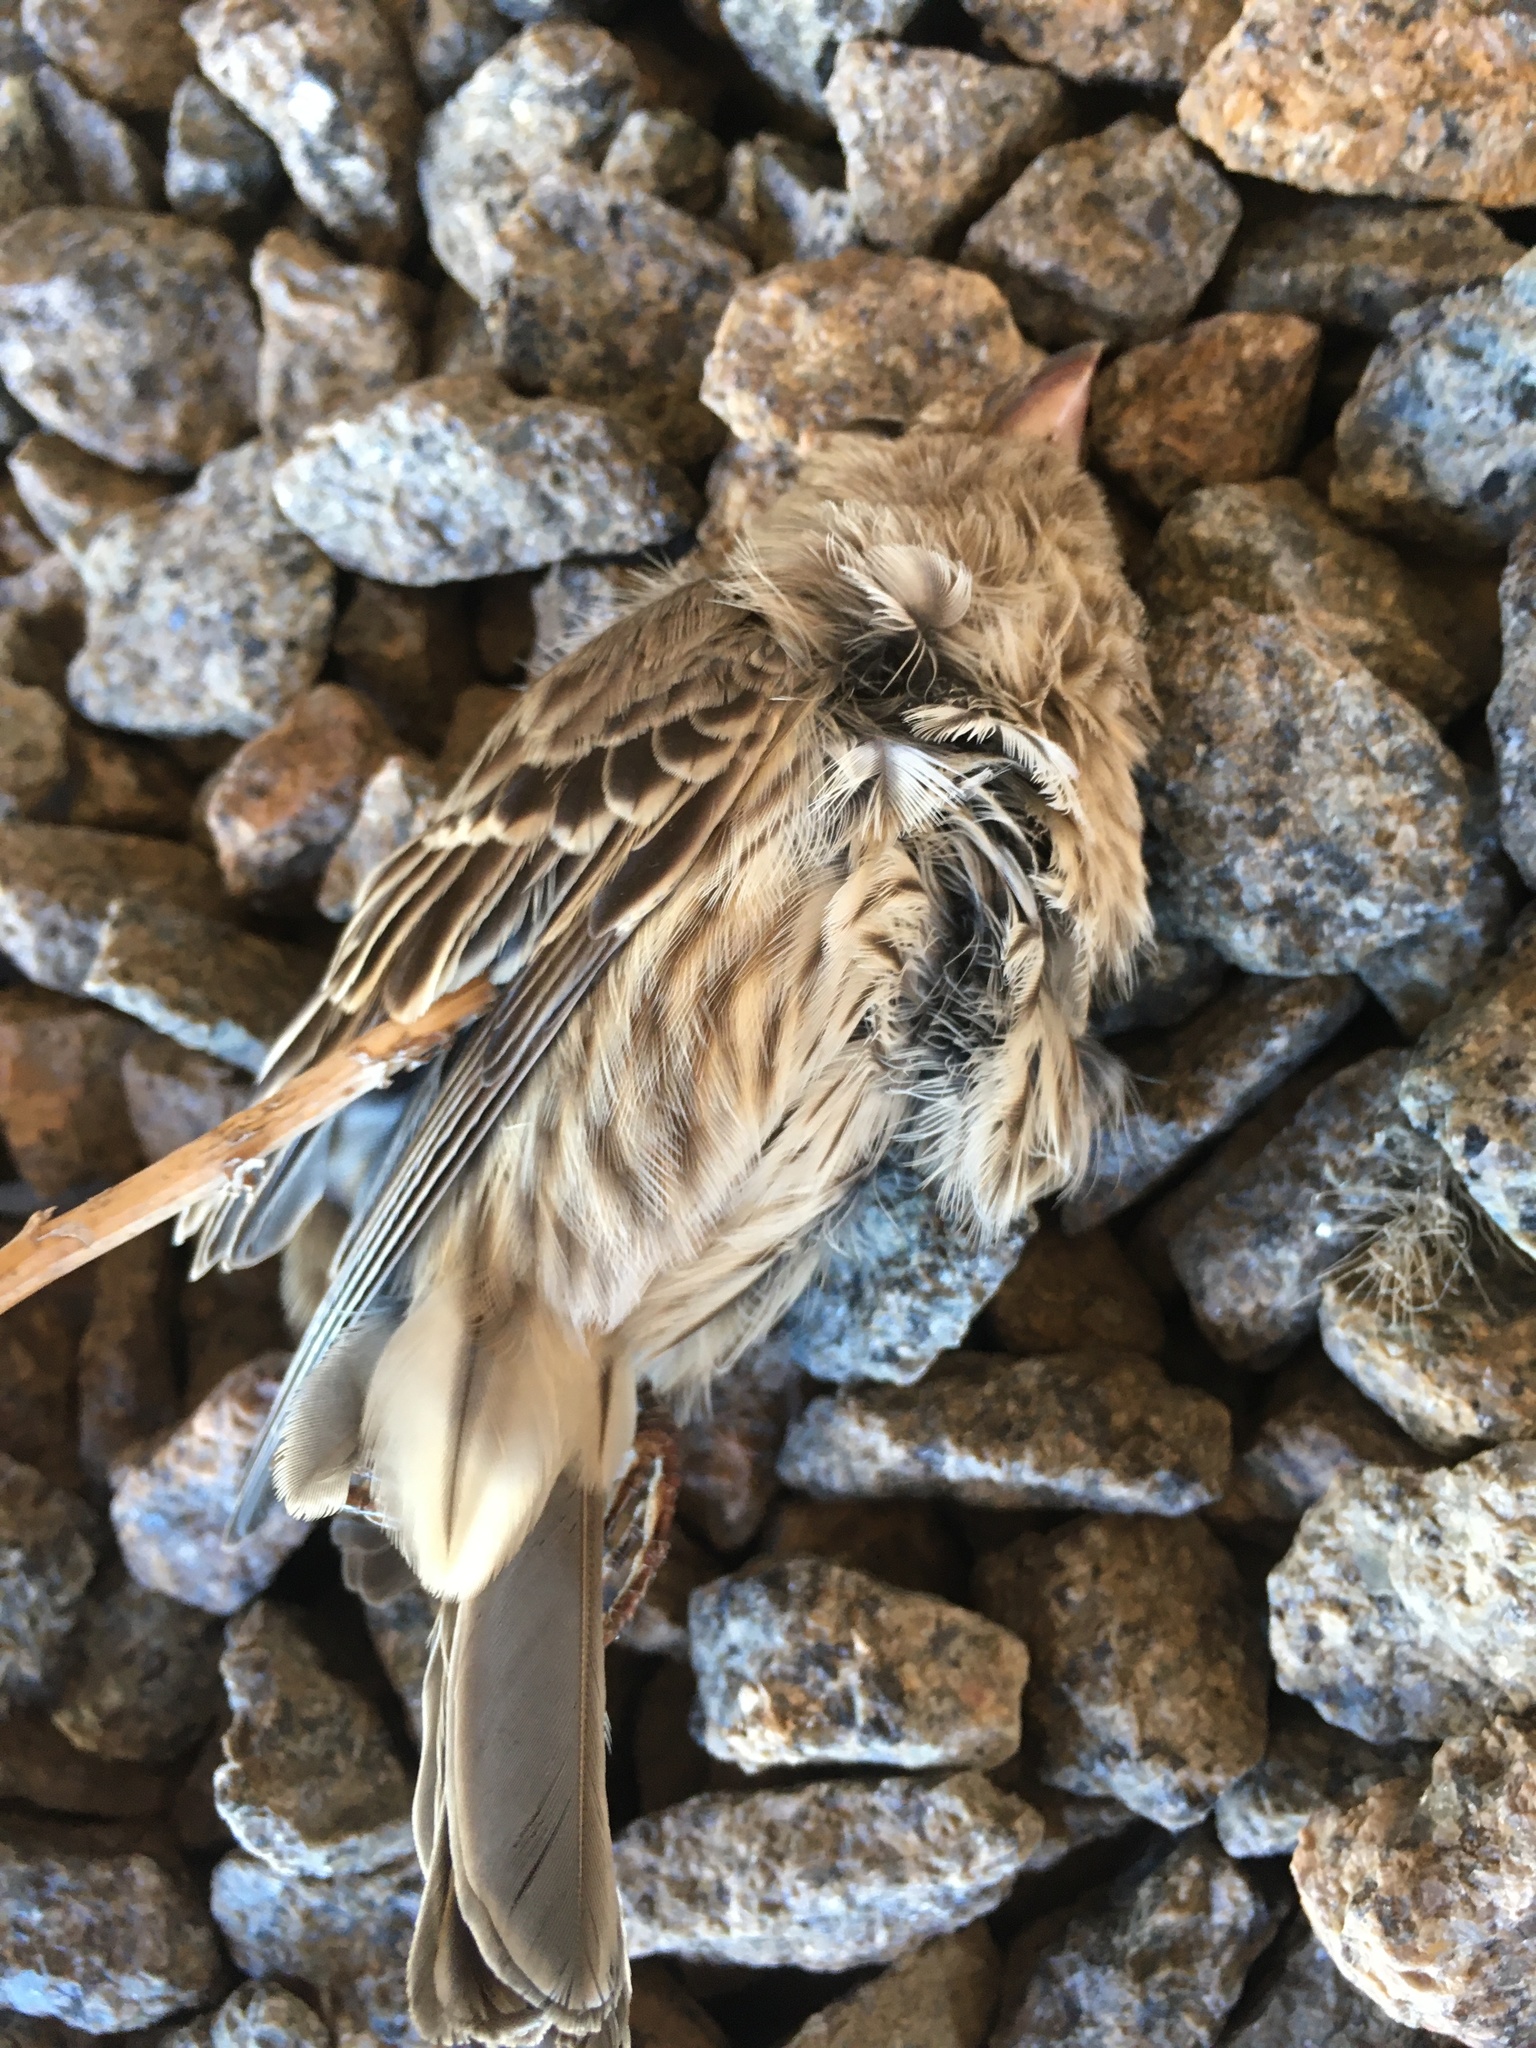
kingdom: Animalia
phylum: Chordata
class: Aves
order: Passeriformes
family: Fringillidae
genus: Haemorhous
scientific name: Haemorhous mexicanus
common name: House finch
